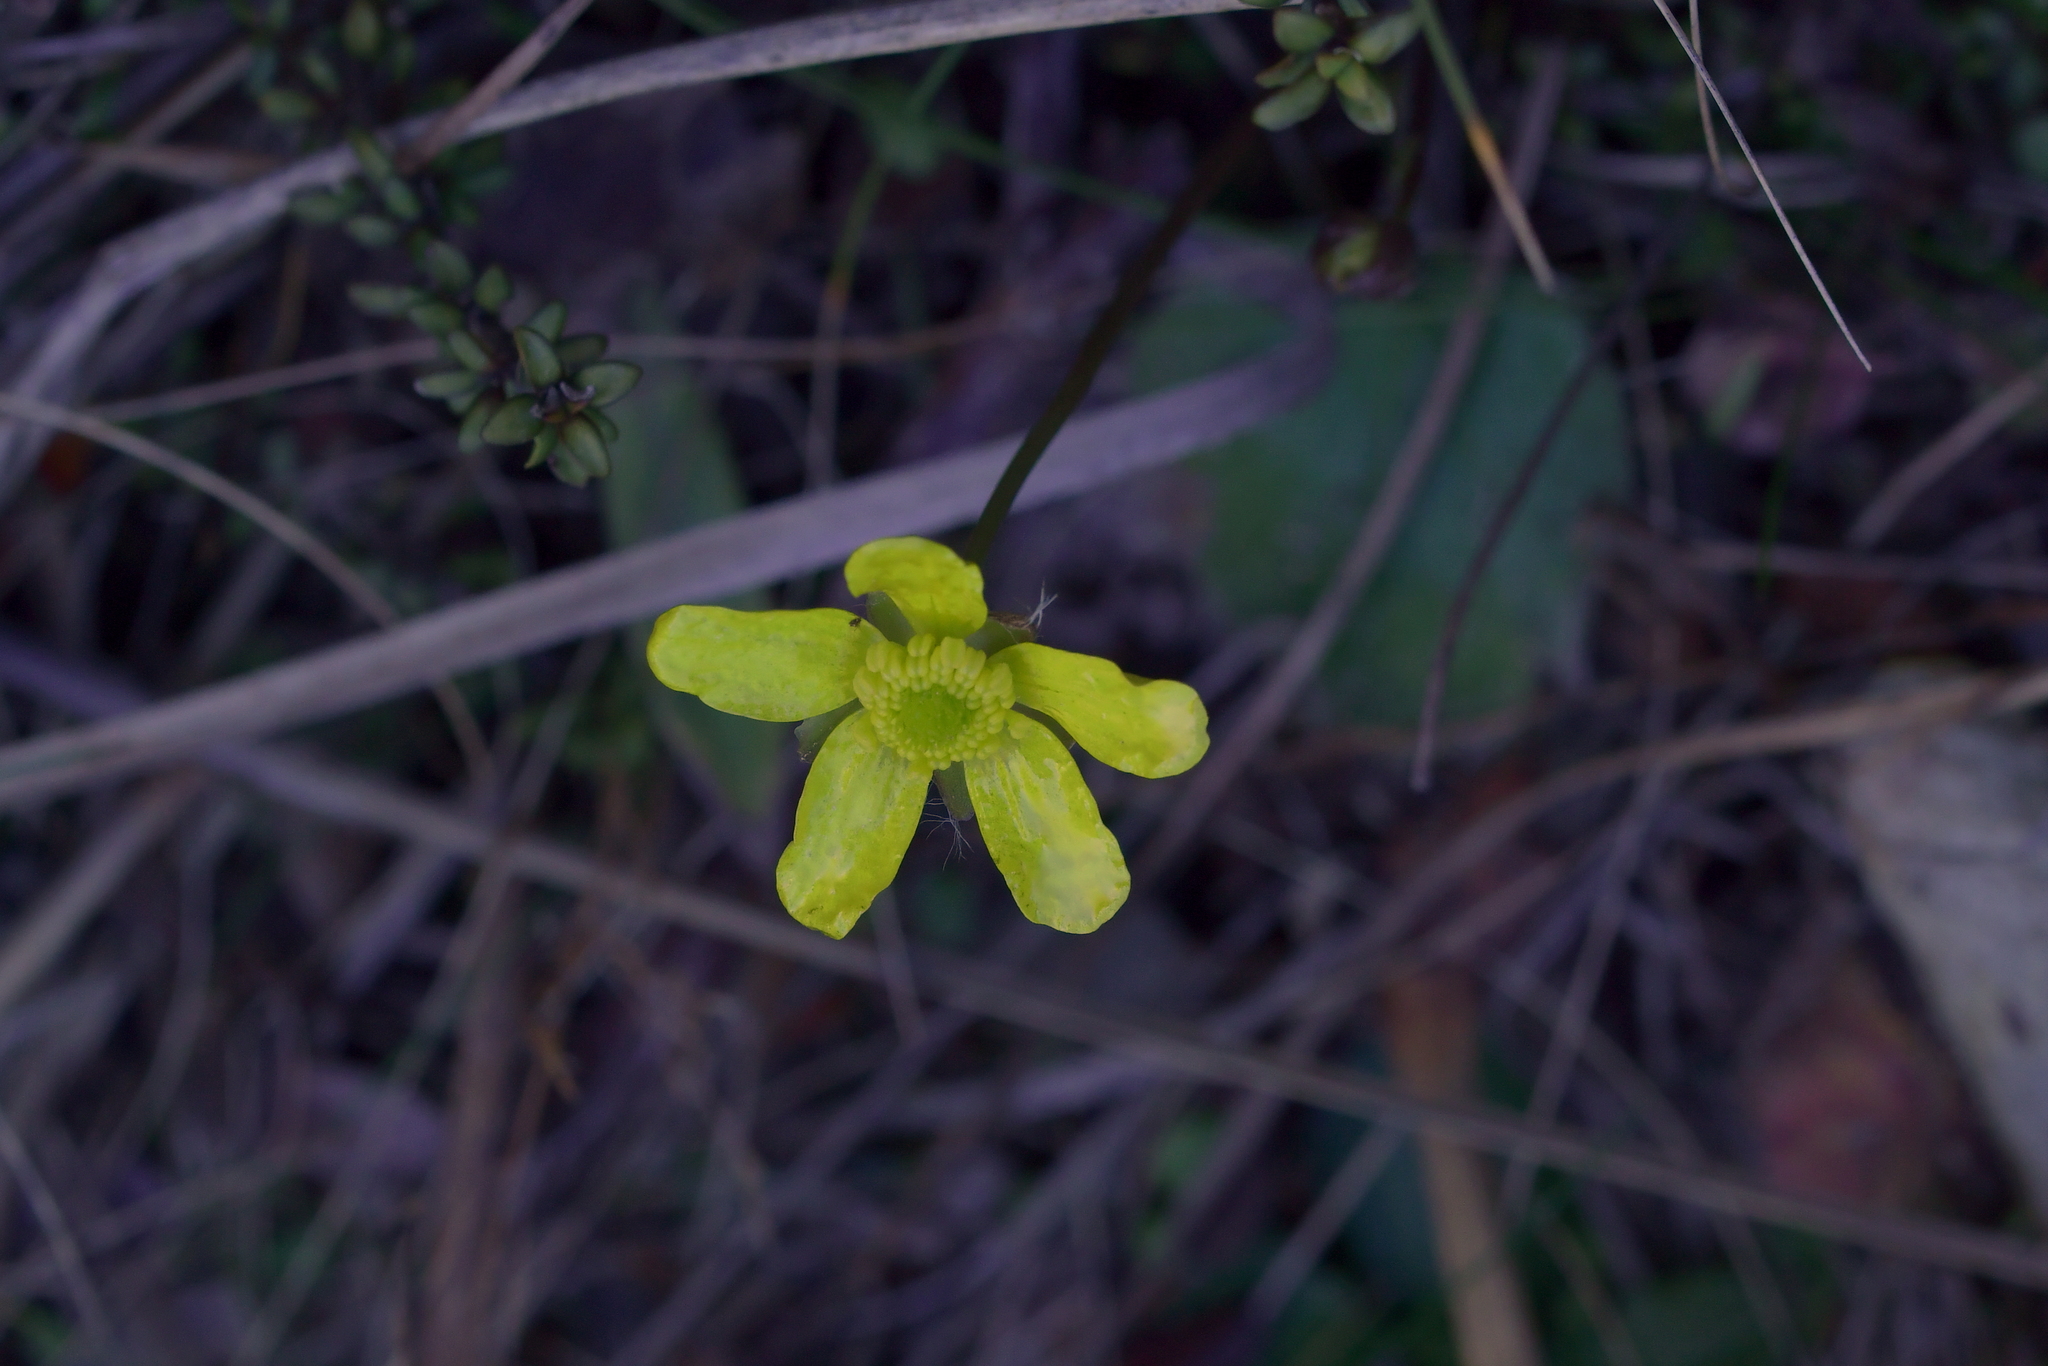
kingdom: Plantae
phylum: Tracheophyta
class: Magnoliopsida
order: Ranunculales
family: Ranunculaceae
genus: Ranunculus
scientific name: Ranunculus insignis
